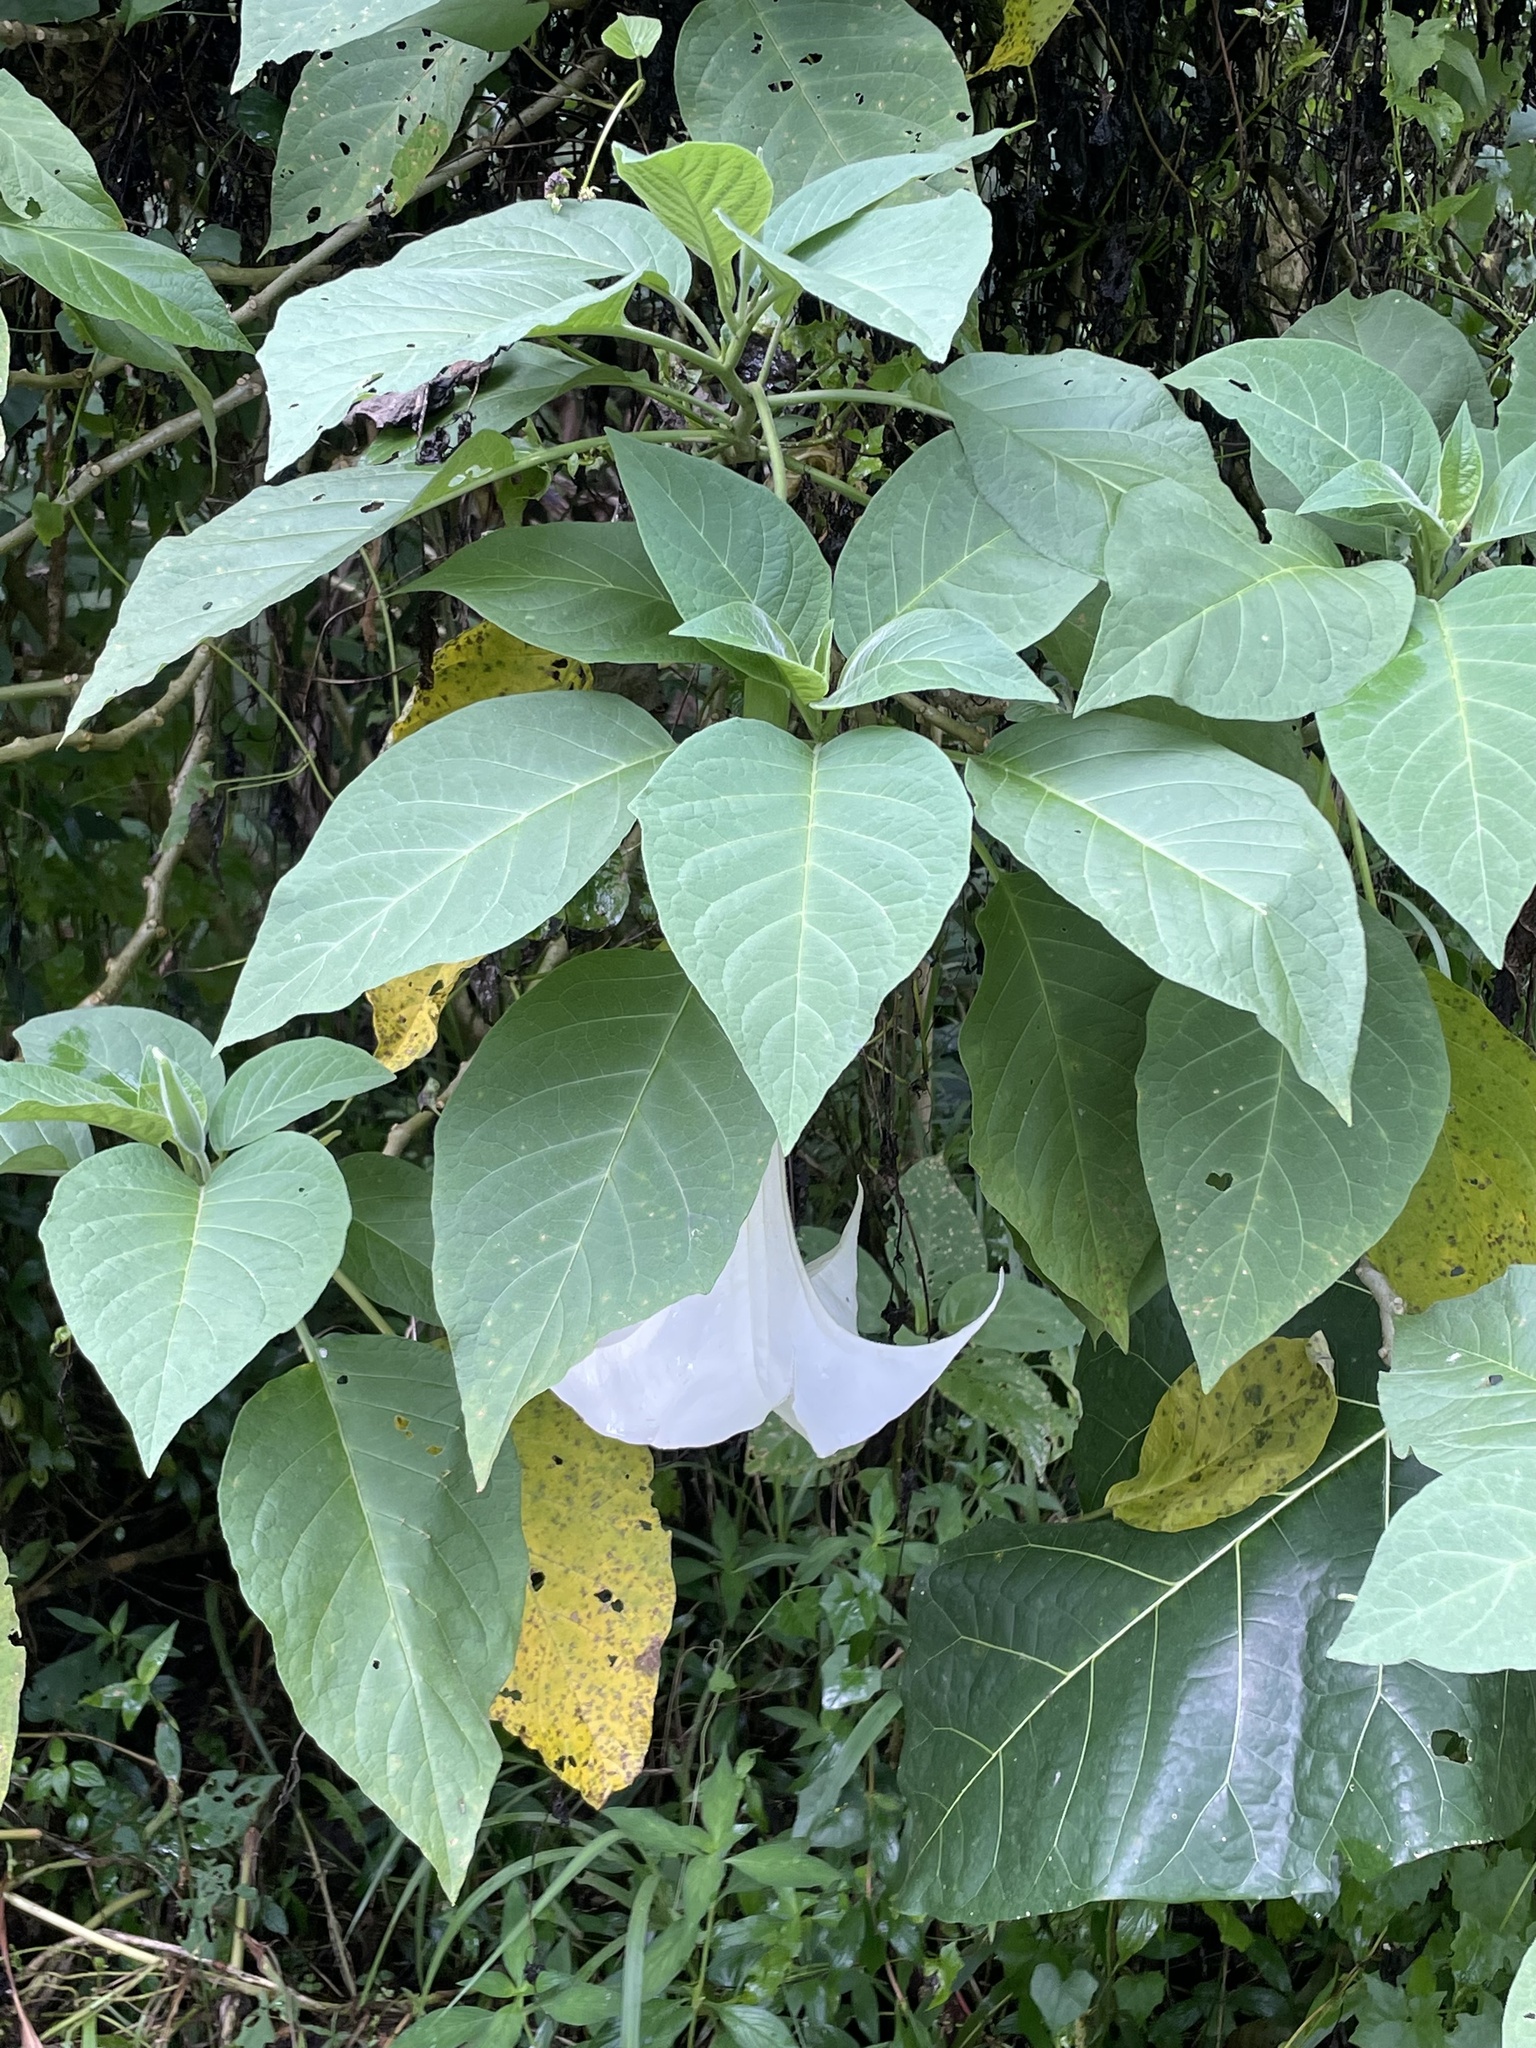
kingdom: Plantae
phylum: Tracheophyta
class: Magnoliopsida
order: Solanales
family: Solanaceae
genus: Brugmansia
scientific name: Brugmansia suaveolens
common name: Angel's tears
